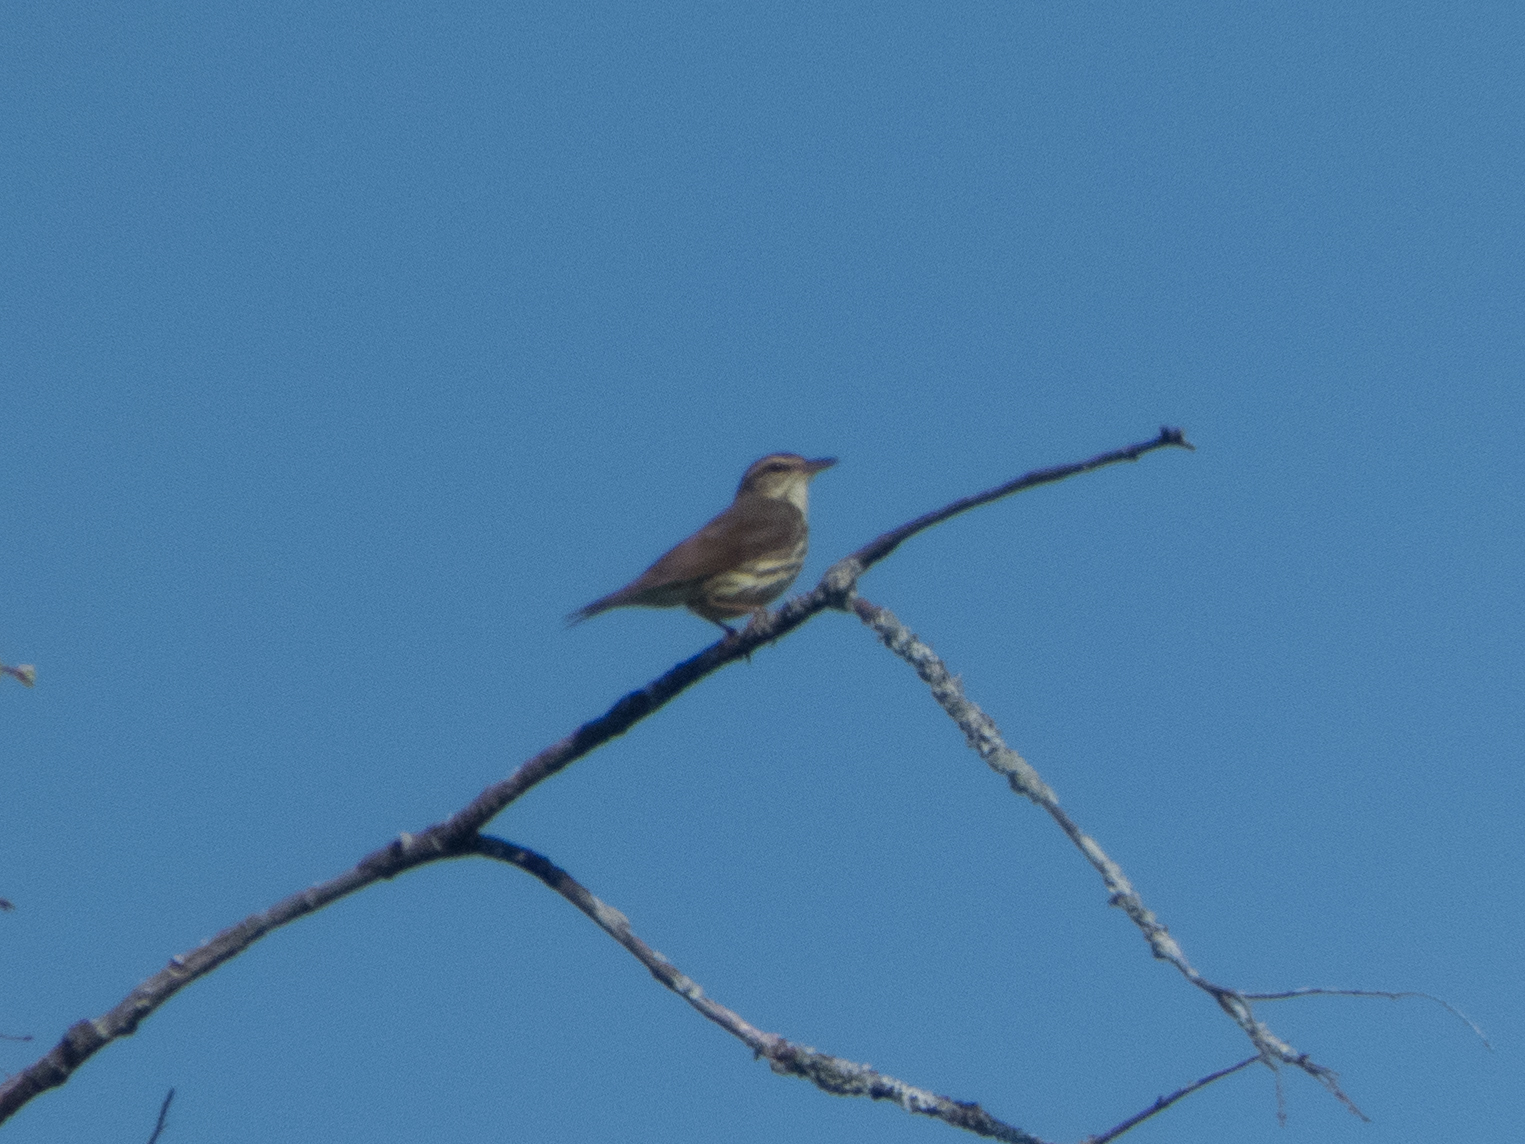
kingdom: Animalia
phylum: Chordata
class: Aves
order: Passeriformes
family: Parulidae
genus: Parkesia
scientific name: Parkesia motacilla
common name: Louisiana waterthrush
